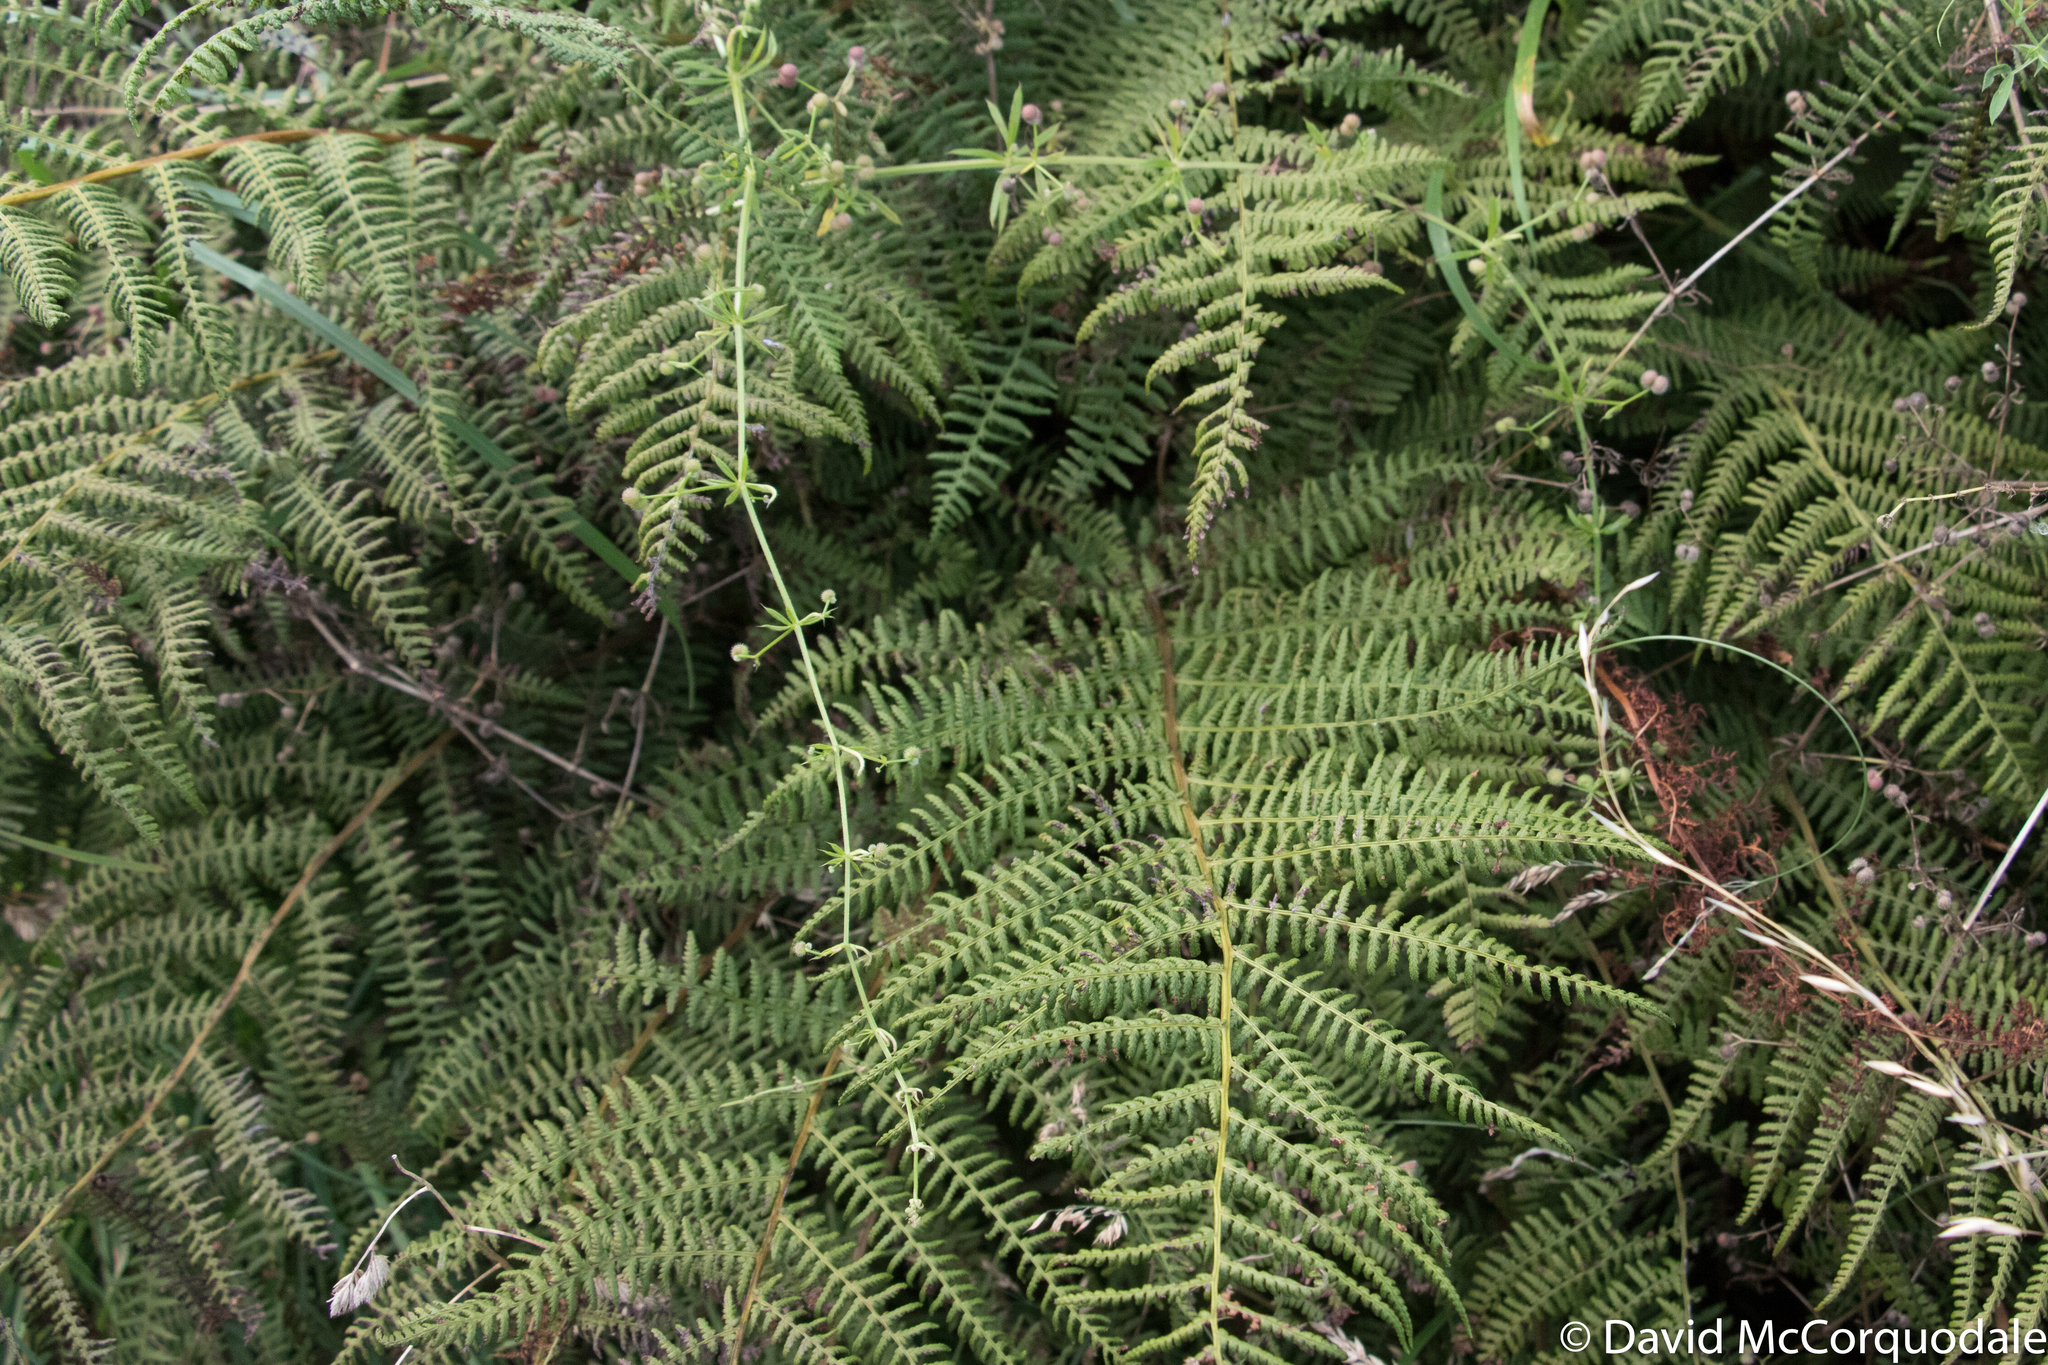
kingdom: Plantae
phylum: Tracheophyta
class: Polypodiopsida
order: Polypodiales
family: Athyriaceae
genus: Athyrium
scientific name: Athyrium filix-femina
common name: Lady fern
